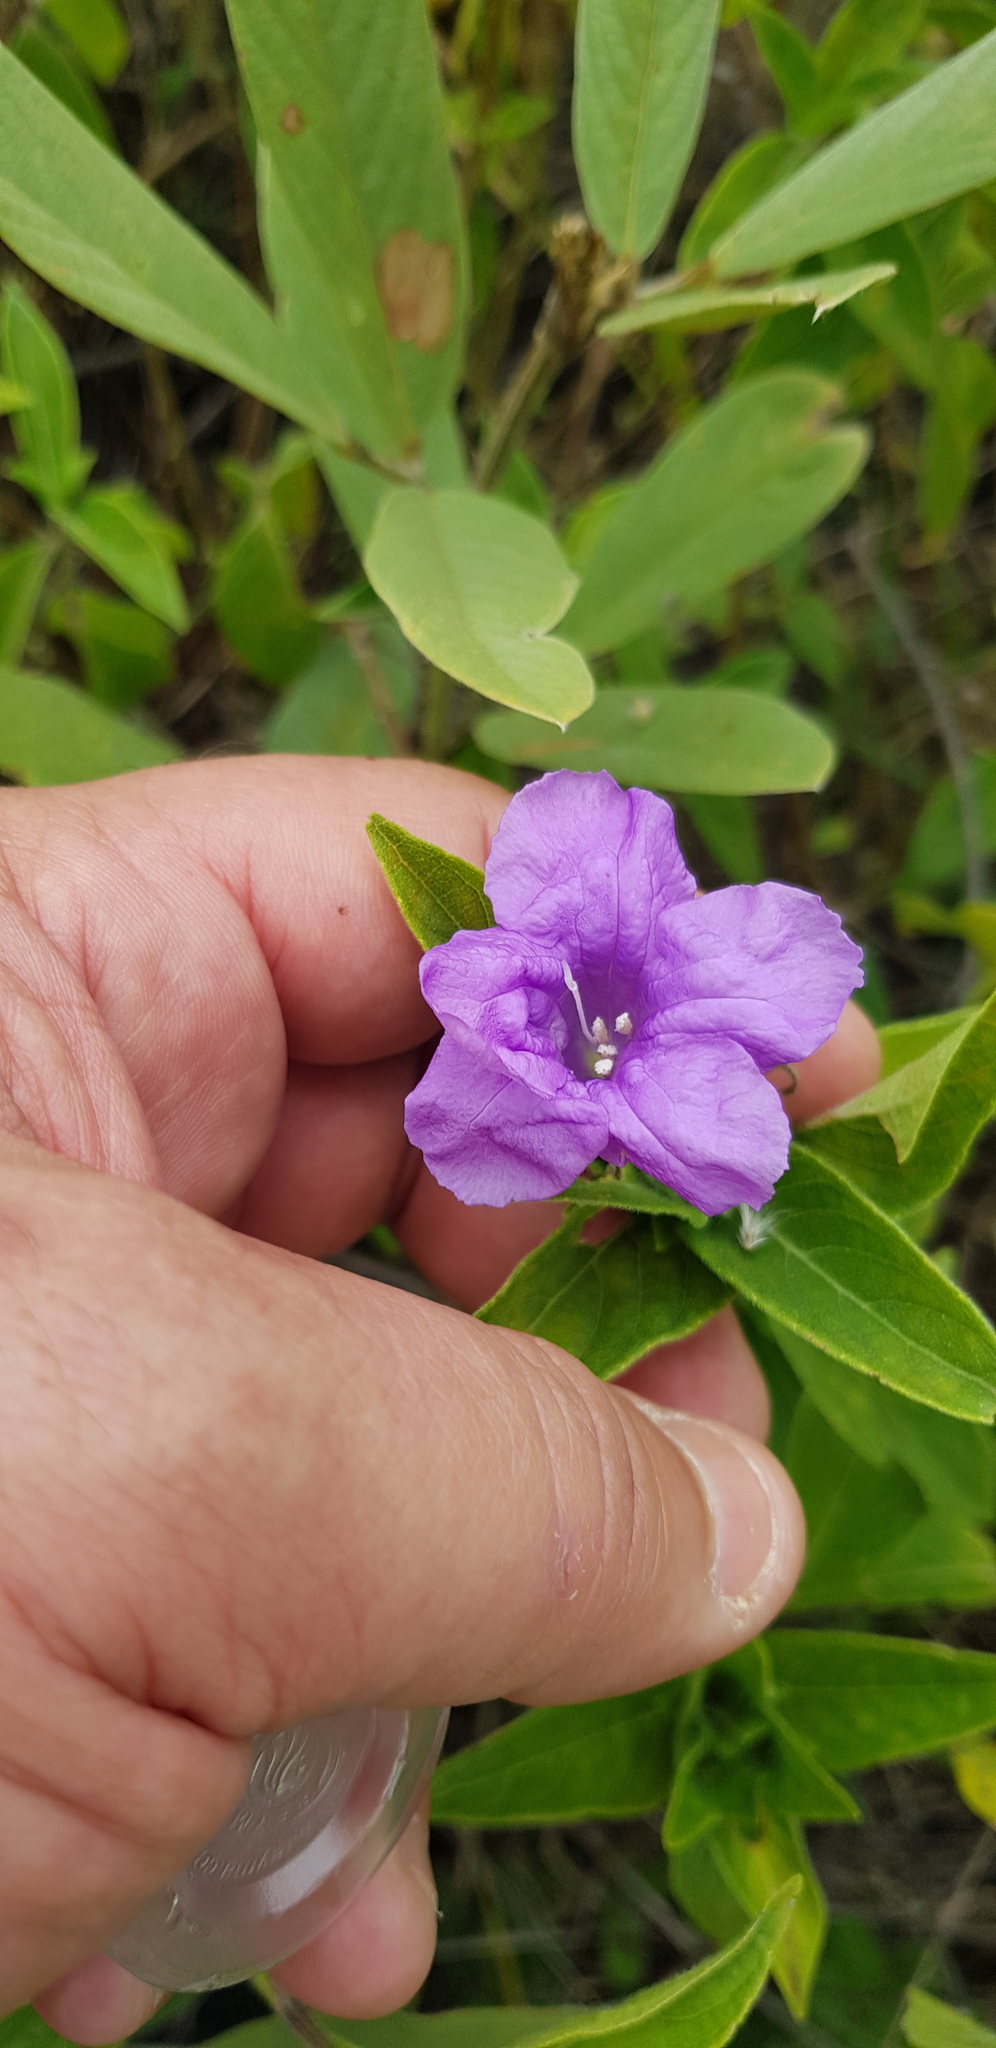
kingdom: Plantae
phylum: Tracheophyta
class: Magnoliopsida
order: Lamiales
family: Acanthaceae
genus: Ruellia
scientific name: Ruellia lactea
